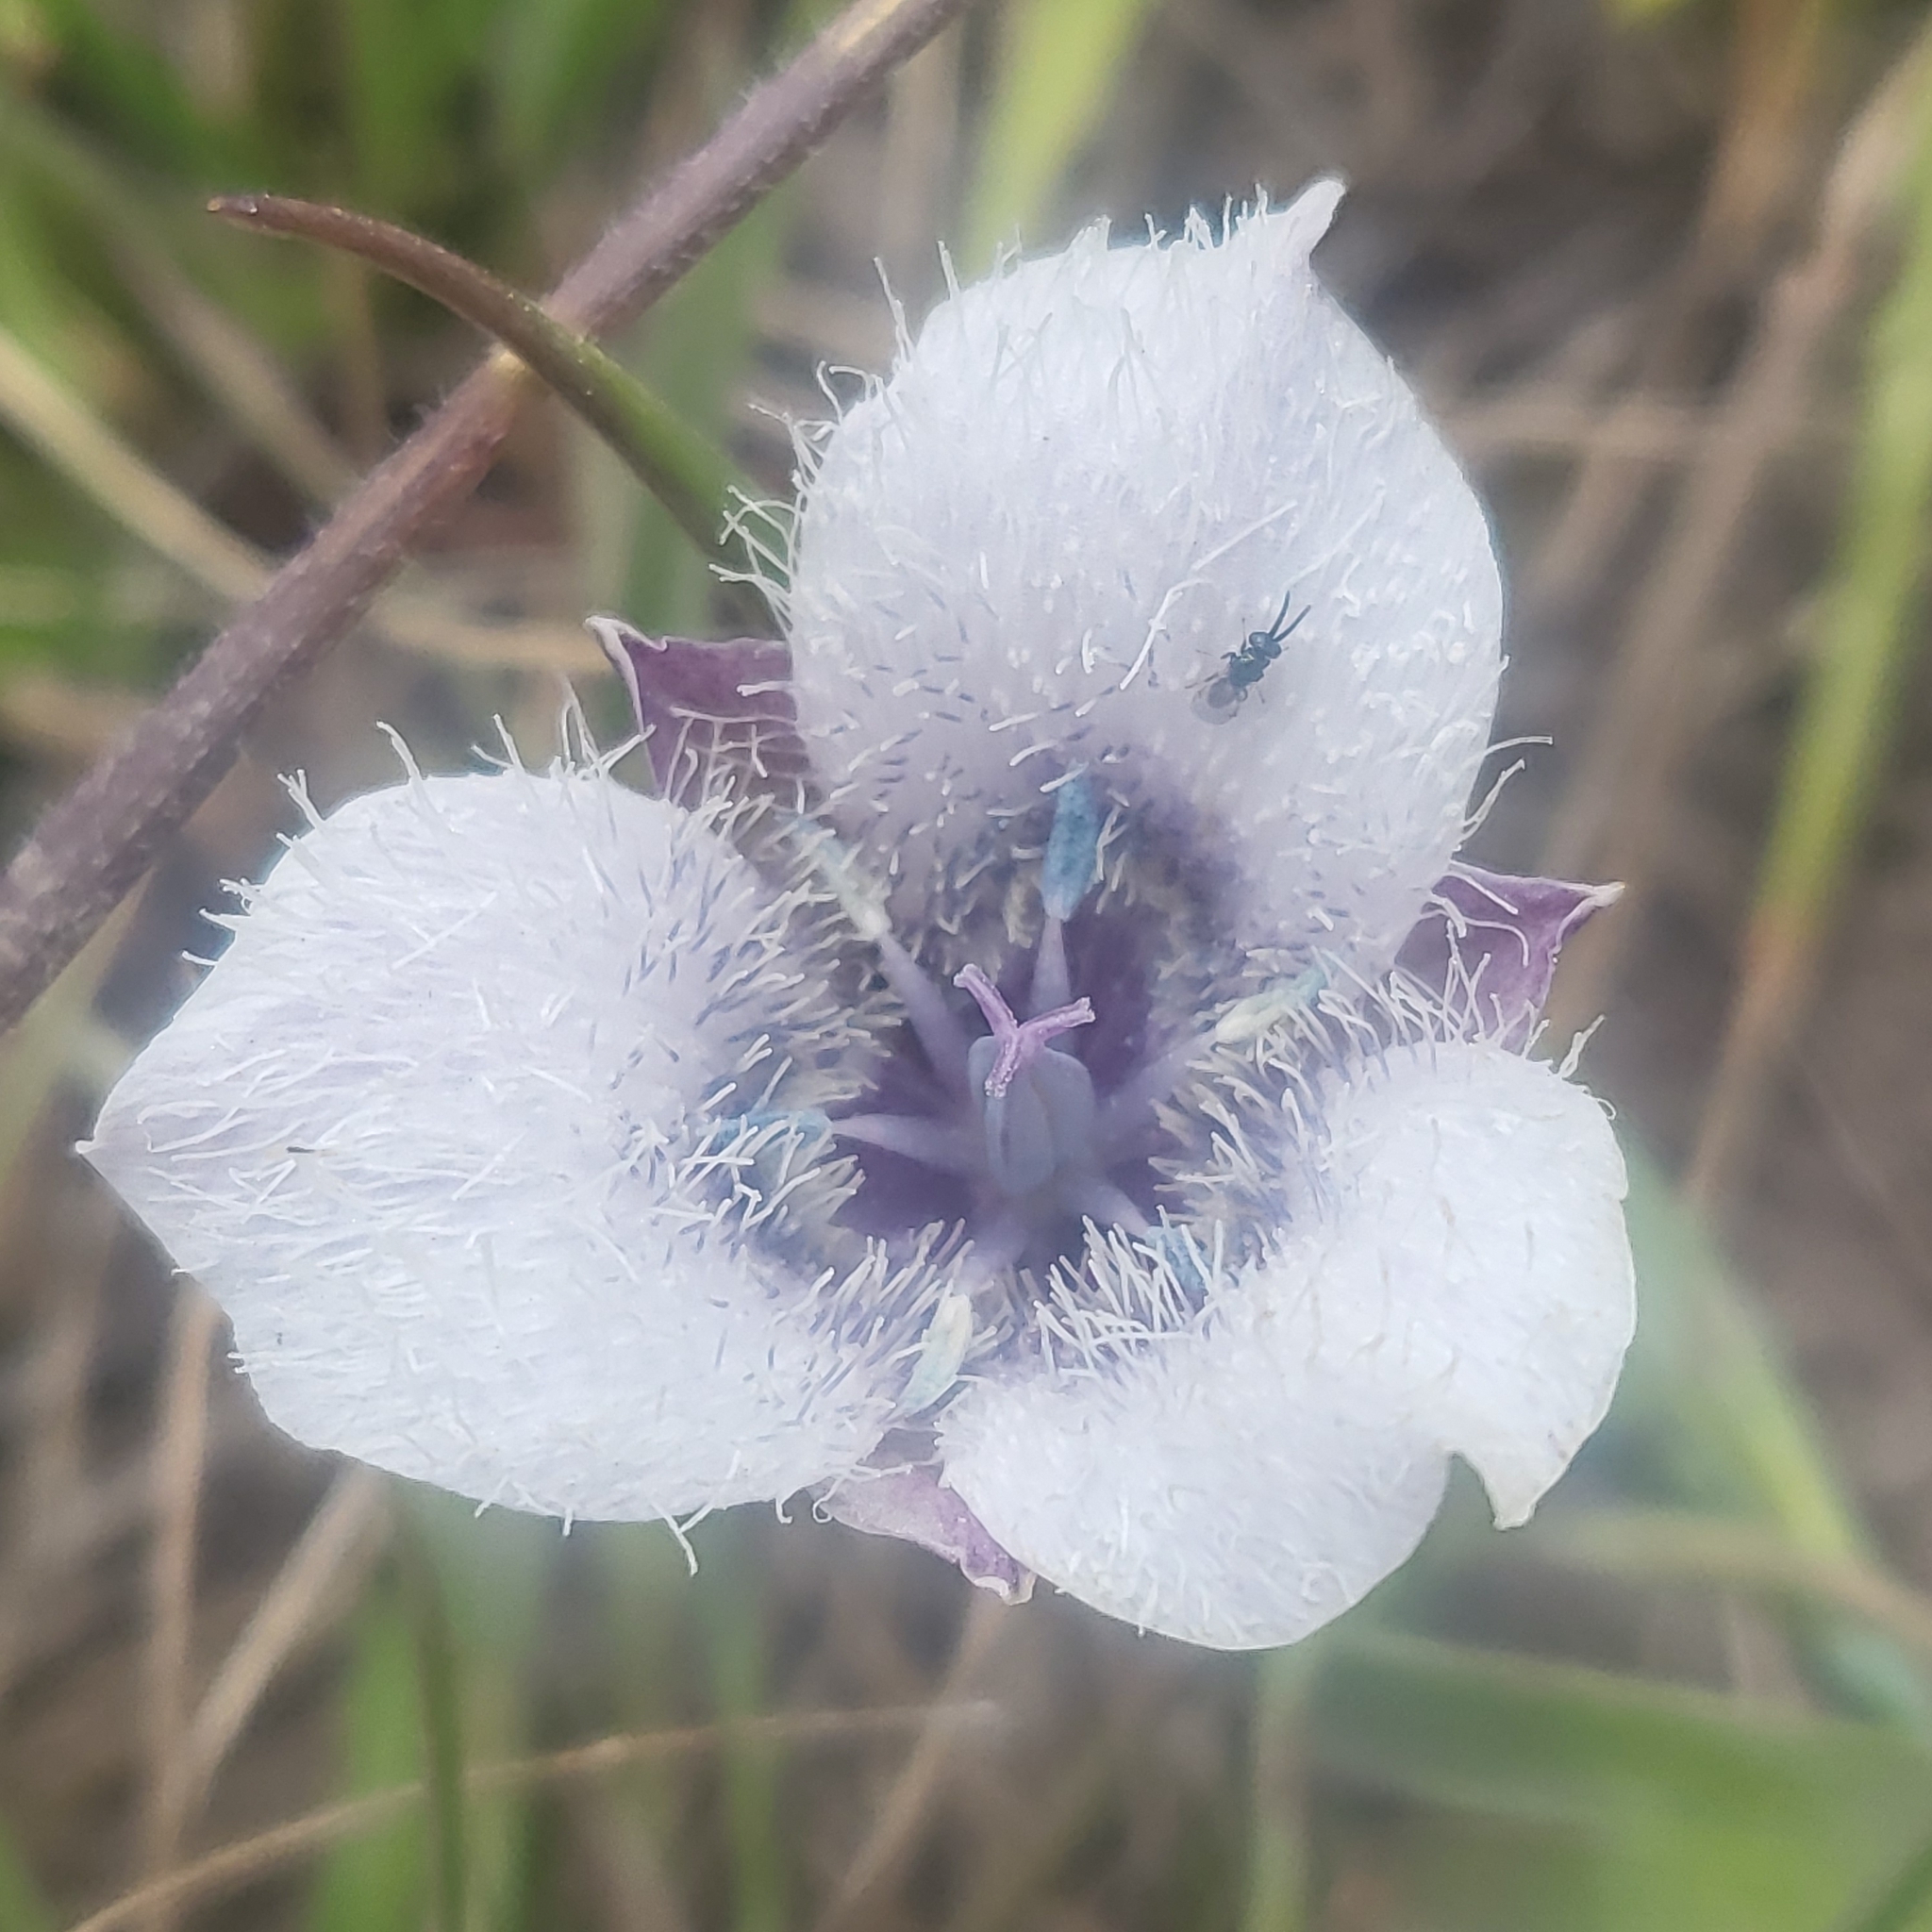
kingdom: Plantae
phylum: Tracheophyta
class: Liliopsida
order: Liliales
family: Liliaceae
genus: Calochortus
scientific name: Calochortus tolmiei
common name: Pussy-ears
